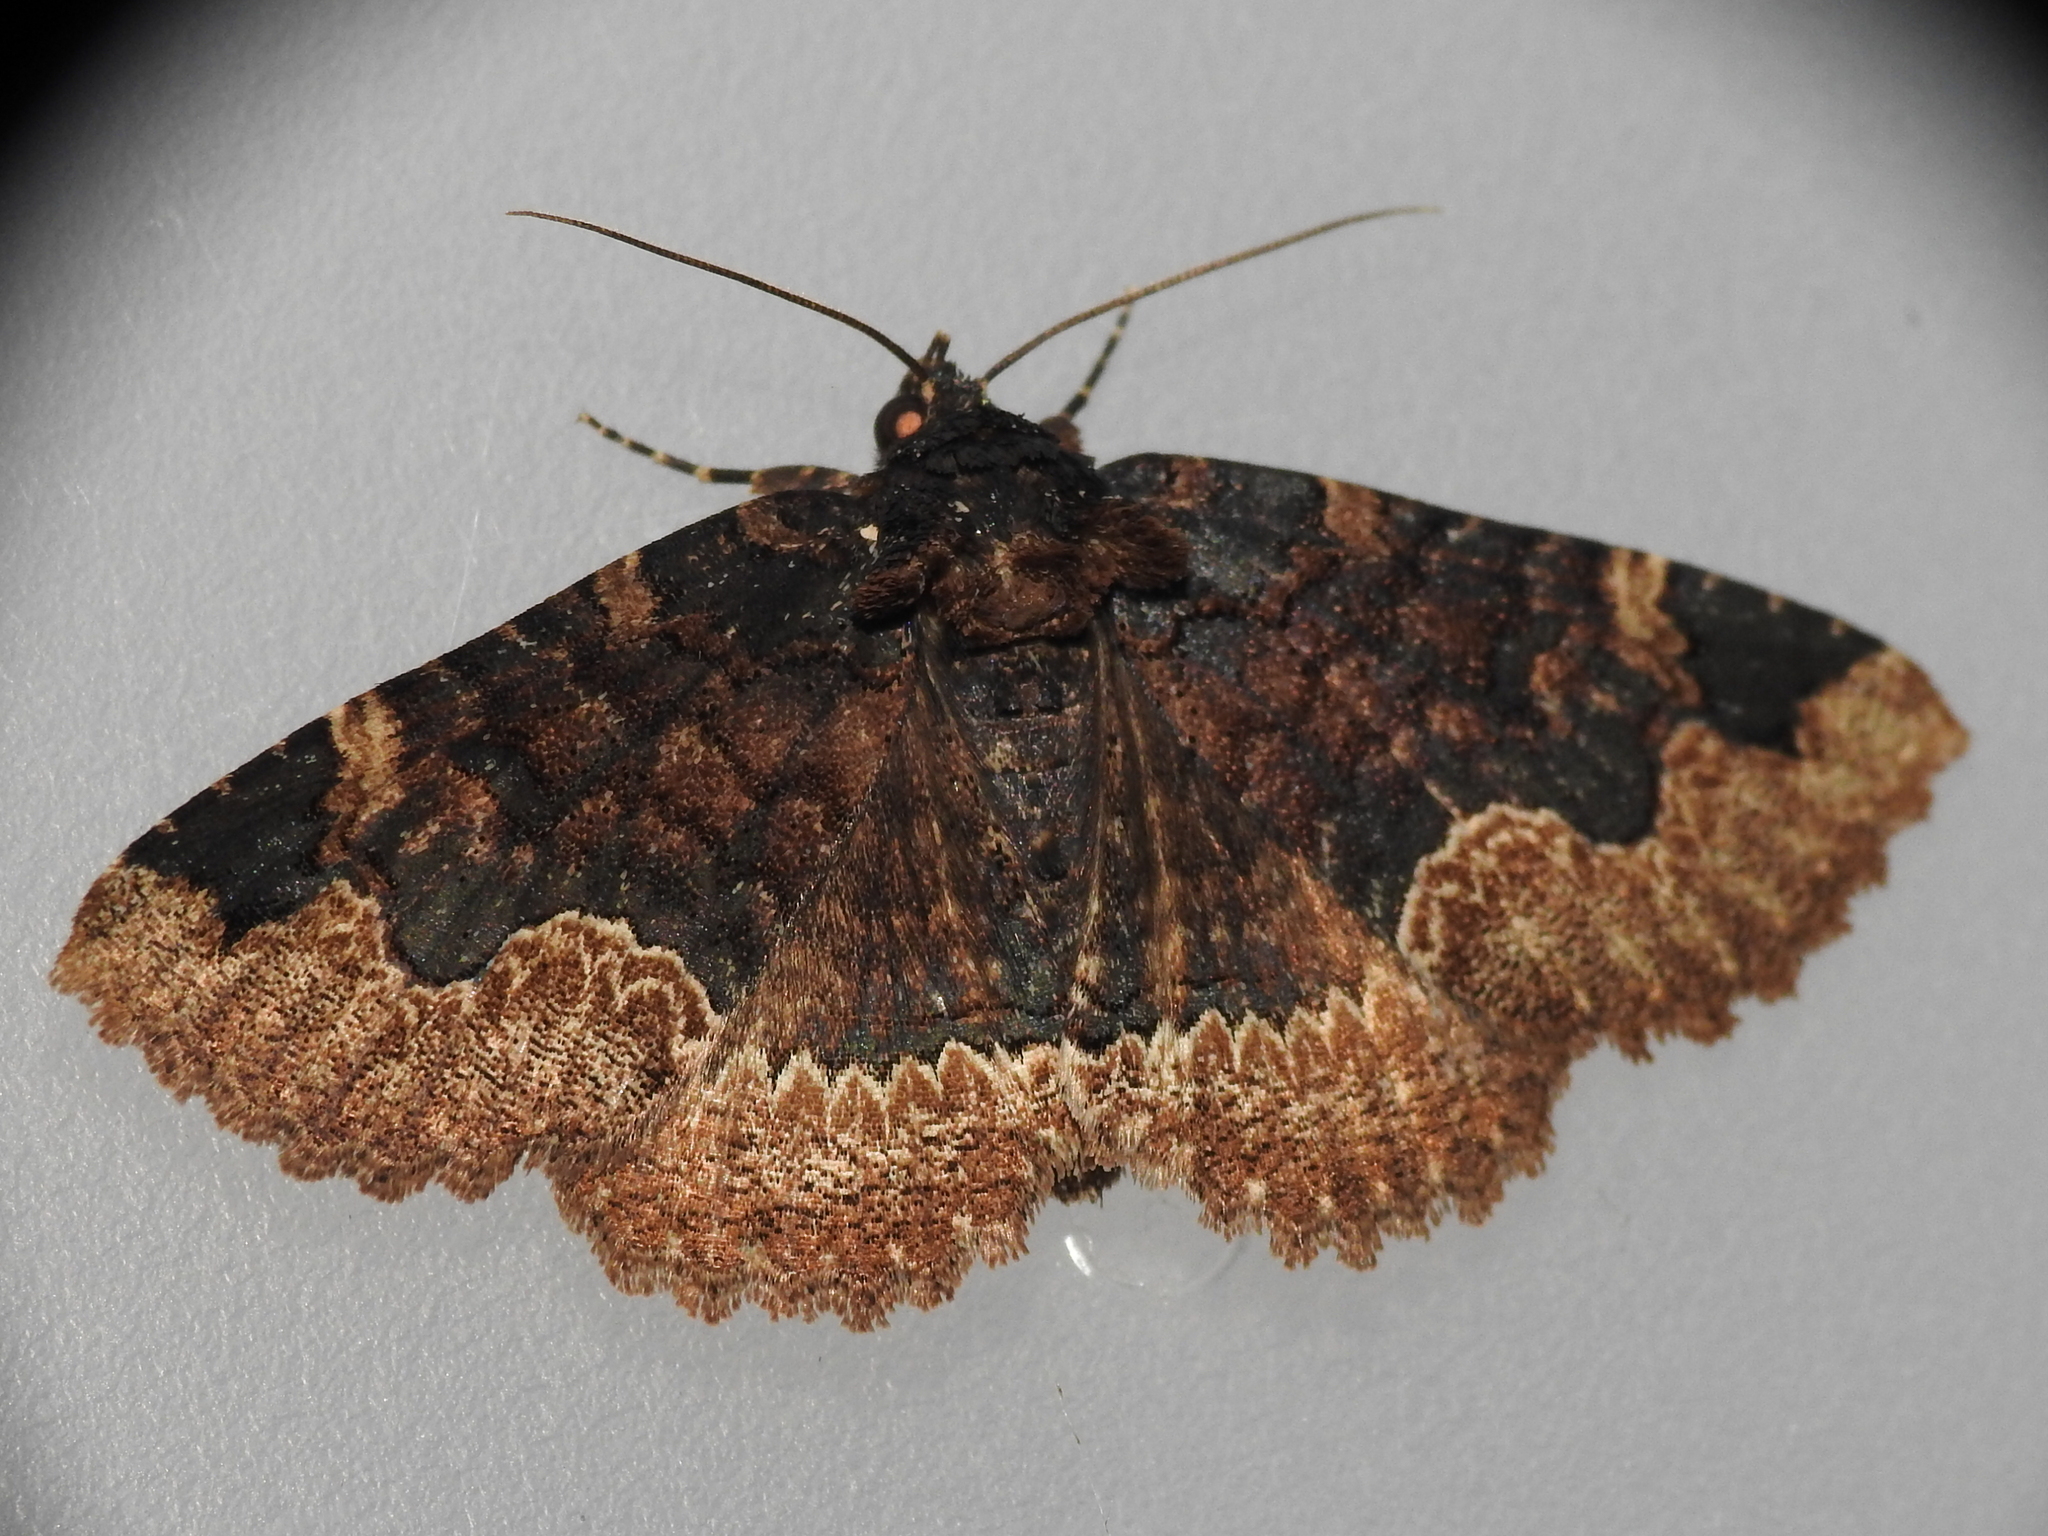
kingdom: Animalia
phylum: Arthropoda
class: Insecta
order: Lepidoptera
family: Erebidae
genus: Zale
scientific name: Zale horrida
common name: Horrid zale moth
